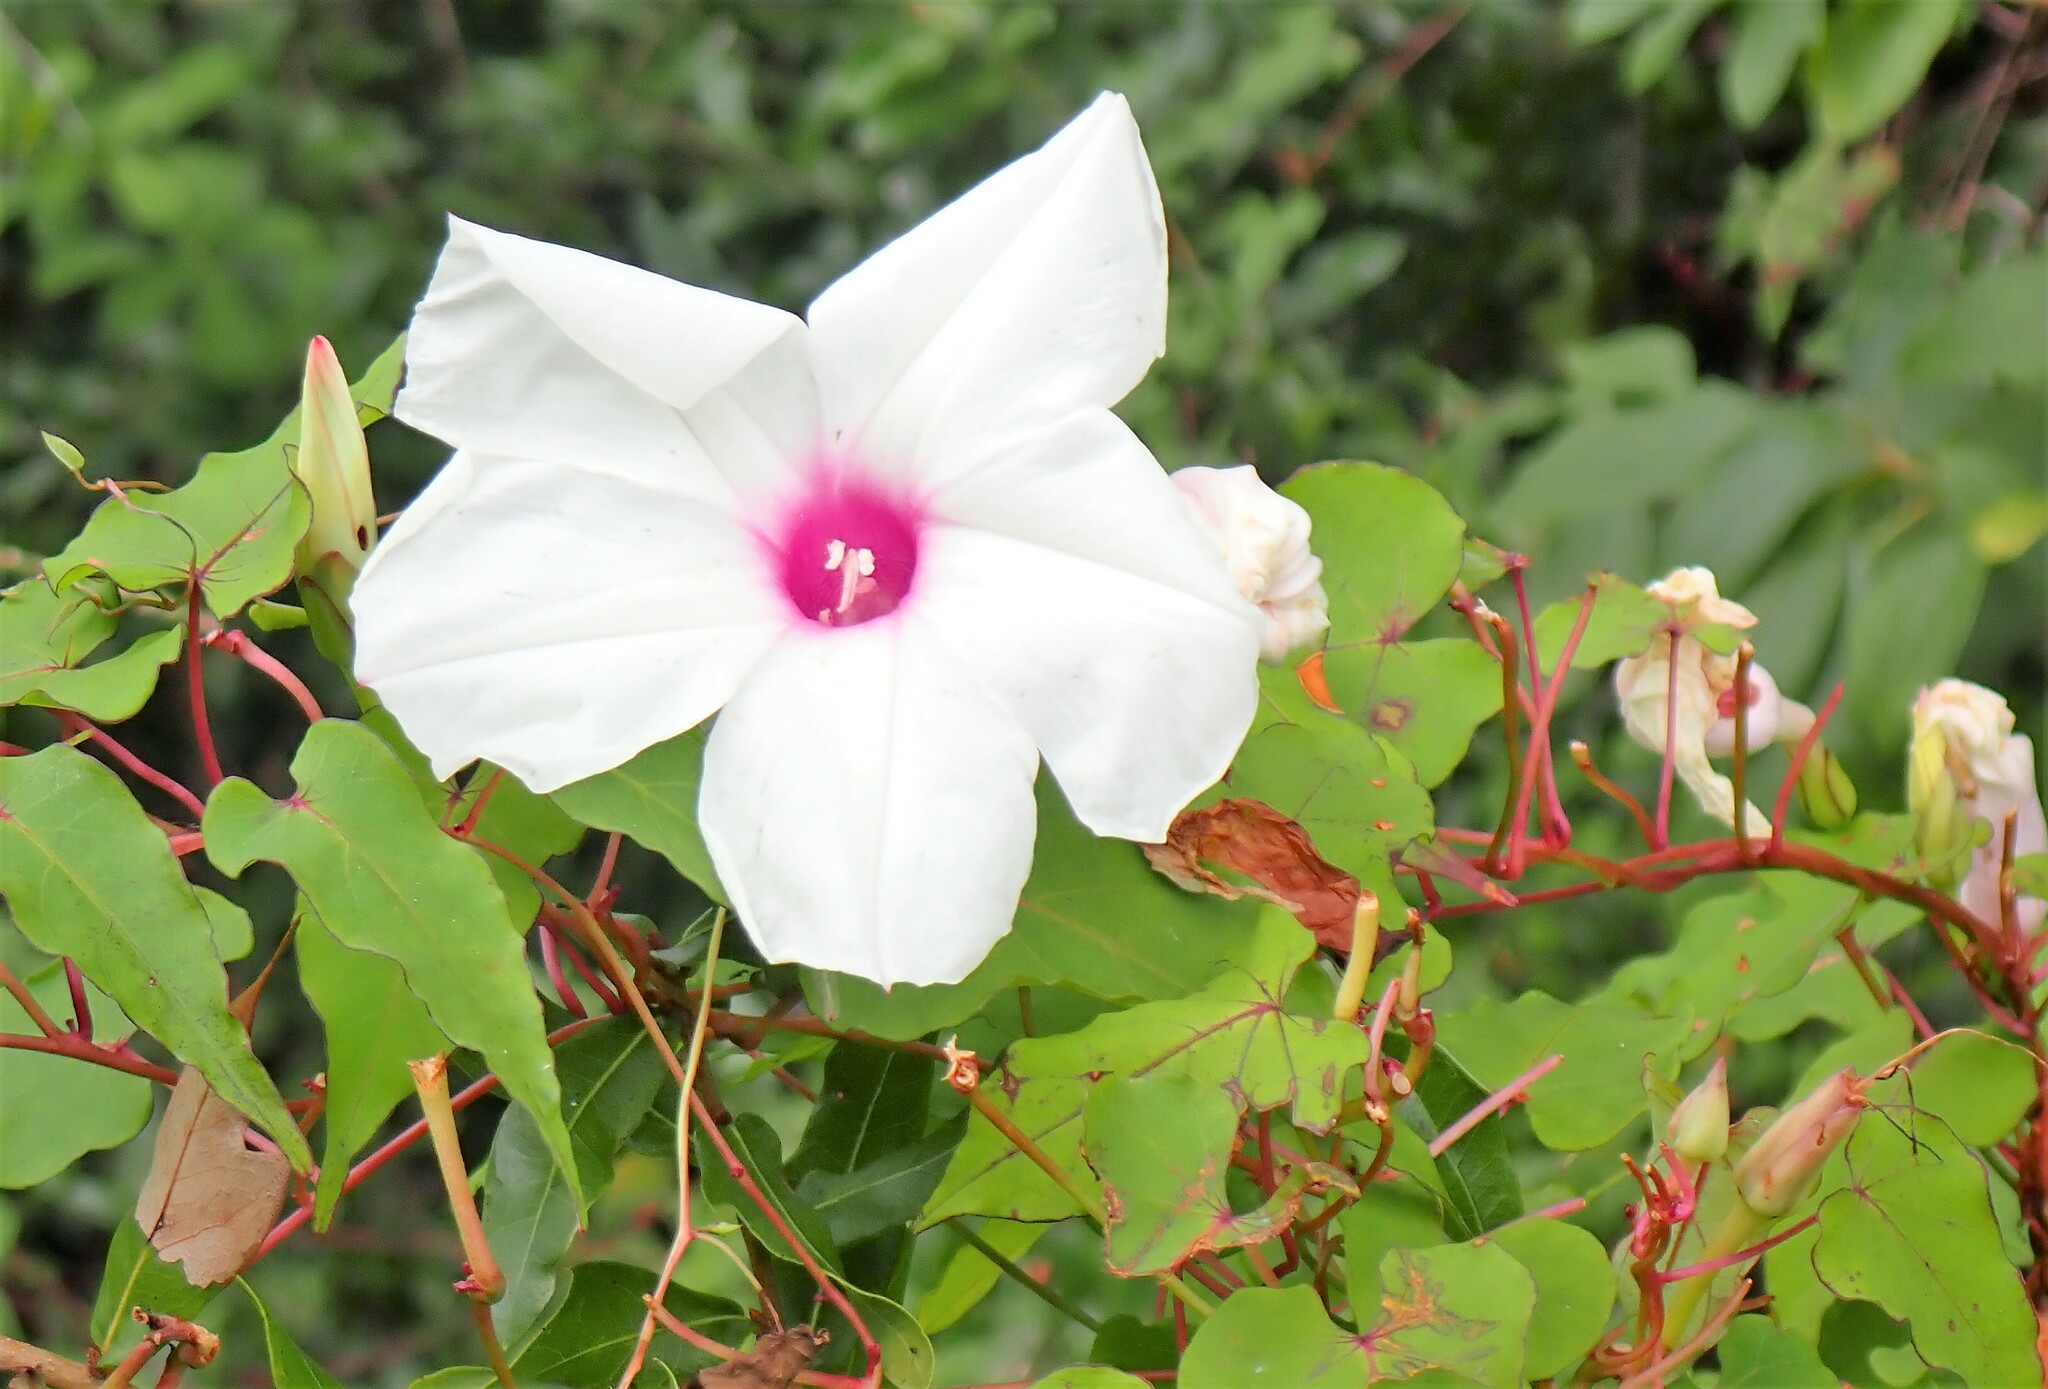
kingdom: Plantae
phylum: Tracheophyta
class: Magnoliopsida
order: Solanales
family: Convolvulaceae
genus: Ipomoea
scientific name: Ipomoea pandurata
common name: Man-of-the-earth
